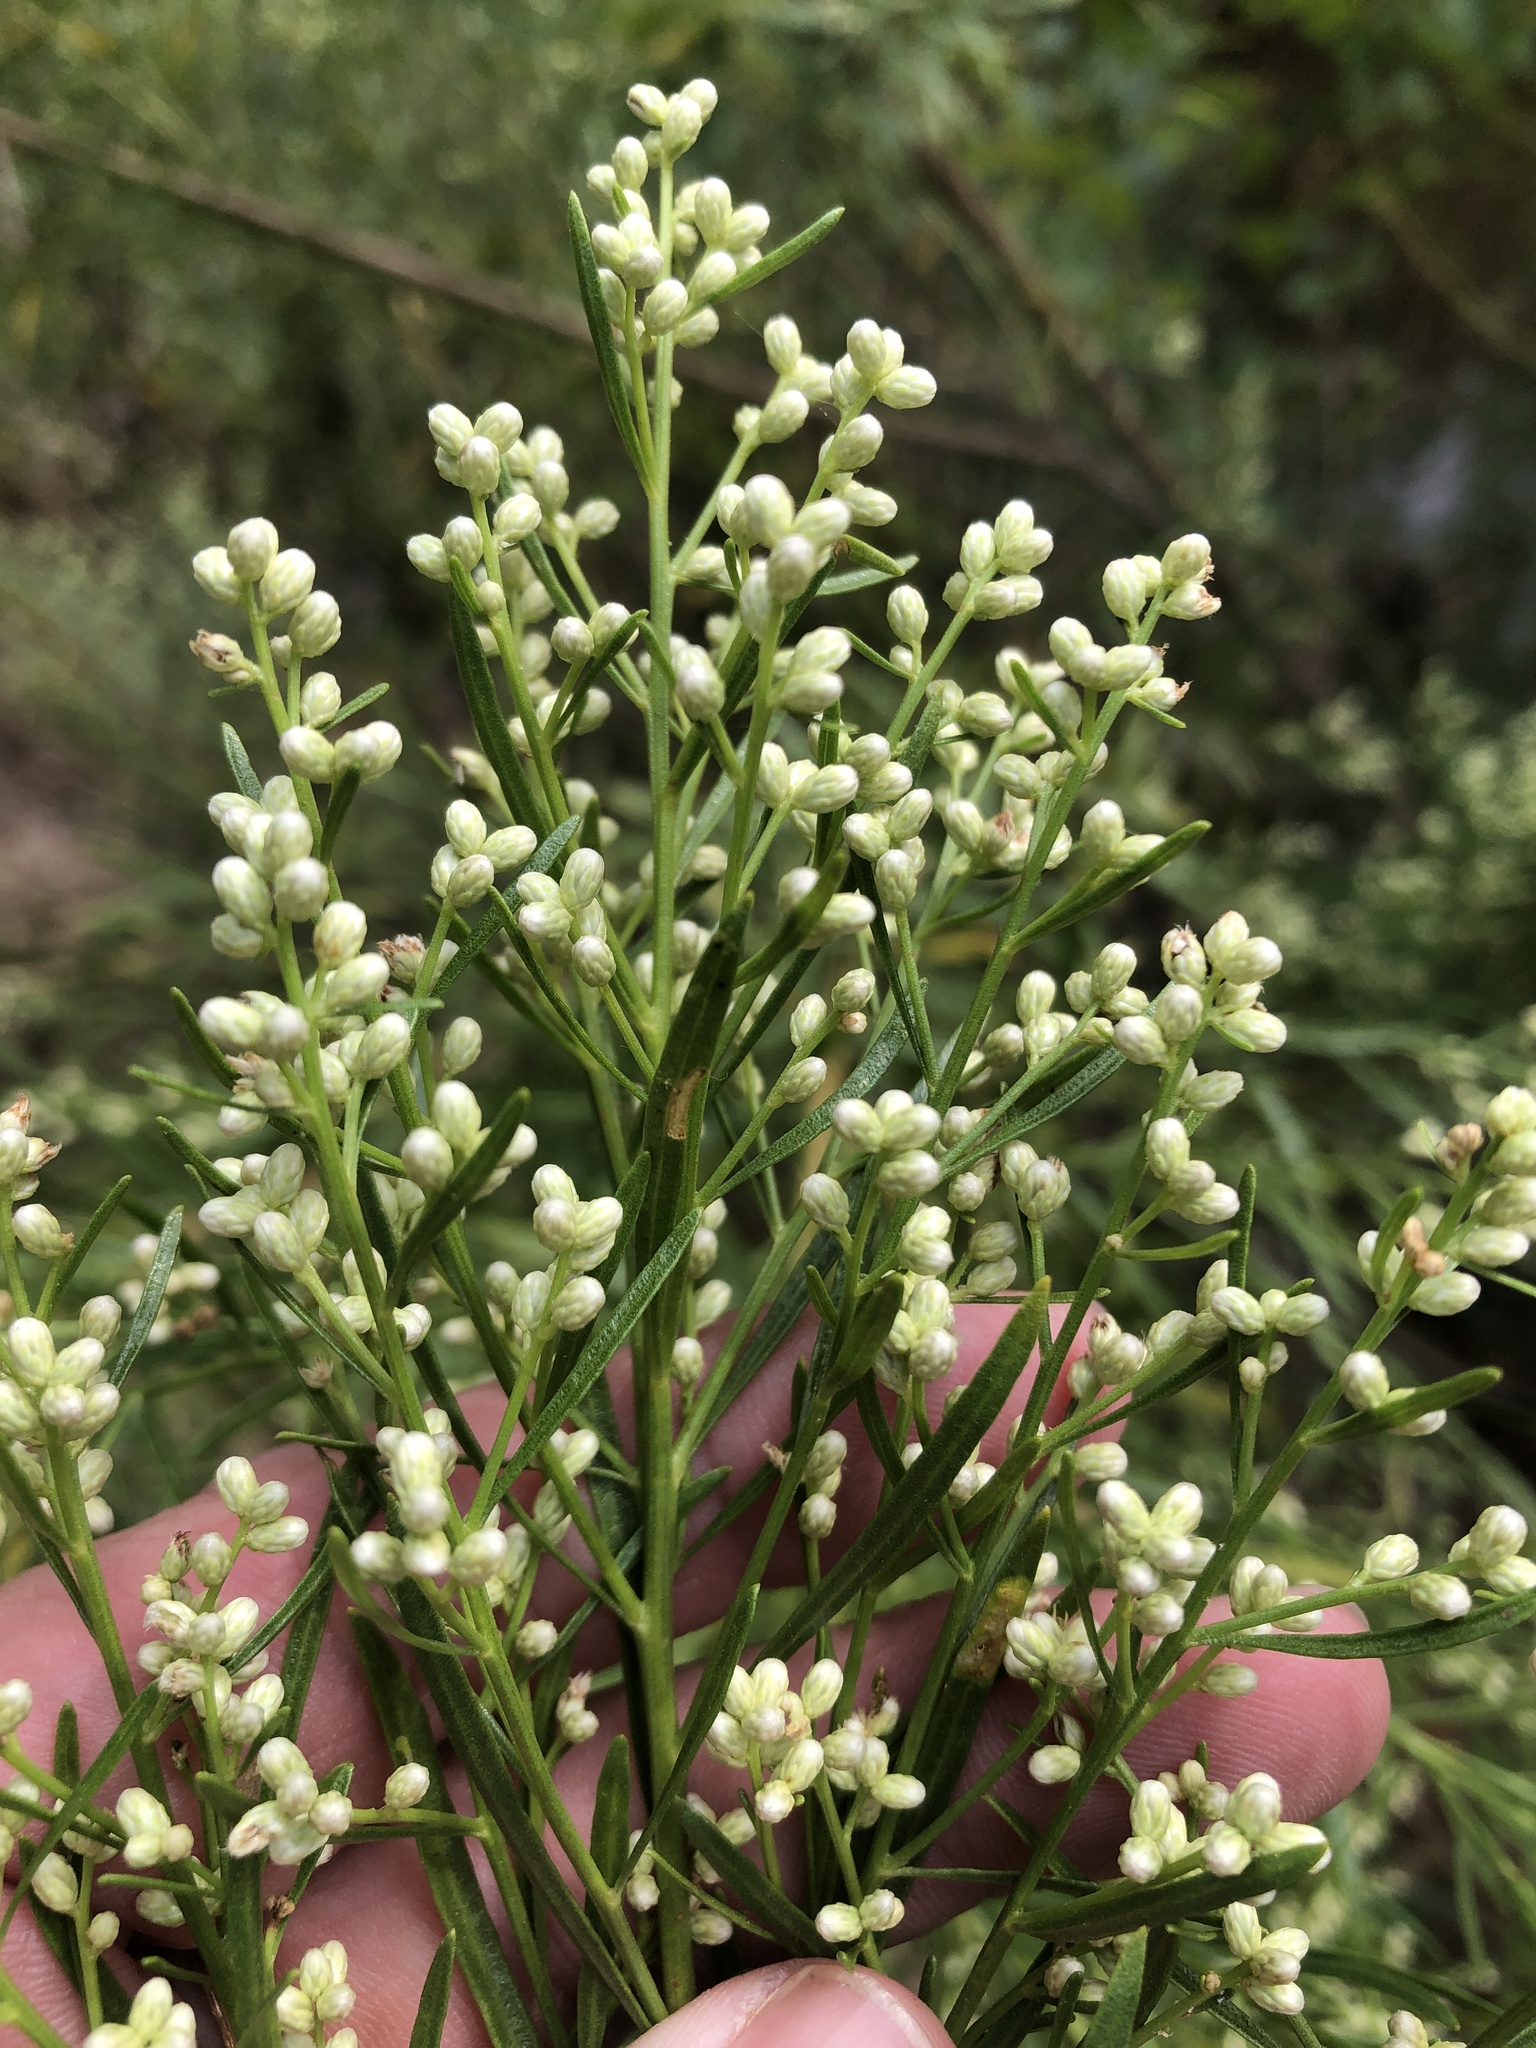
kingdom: Plantae
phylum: Tracheophyta
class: Magnoliopsida
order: Asterales
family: Asteraceae
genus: Baccharis
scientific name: Baccharis neglecta
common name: Roosevelt-weed
